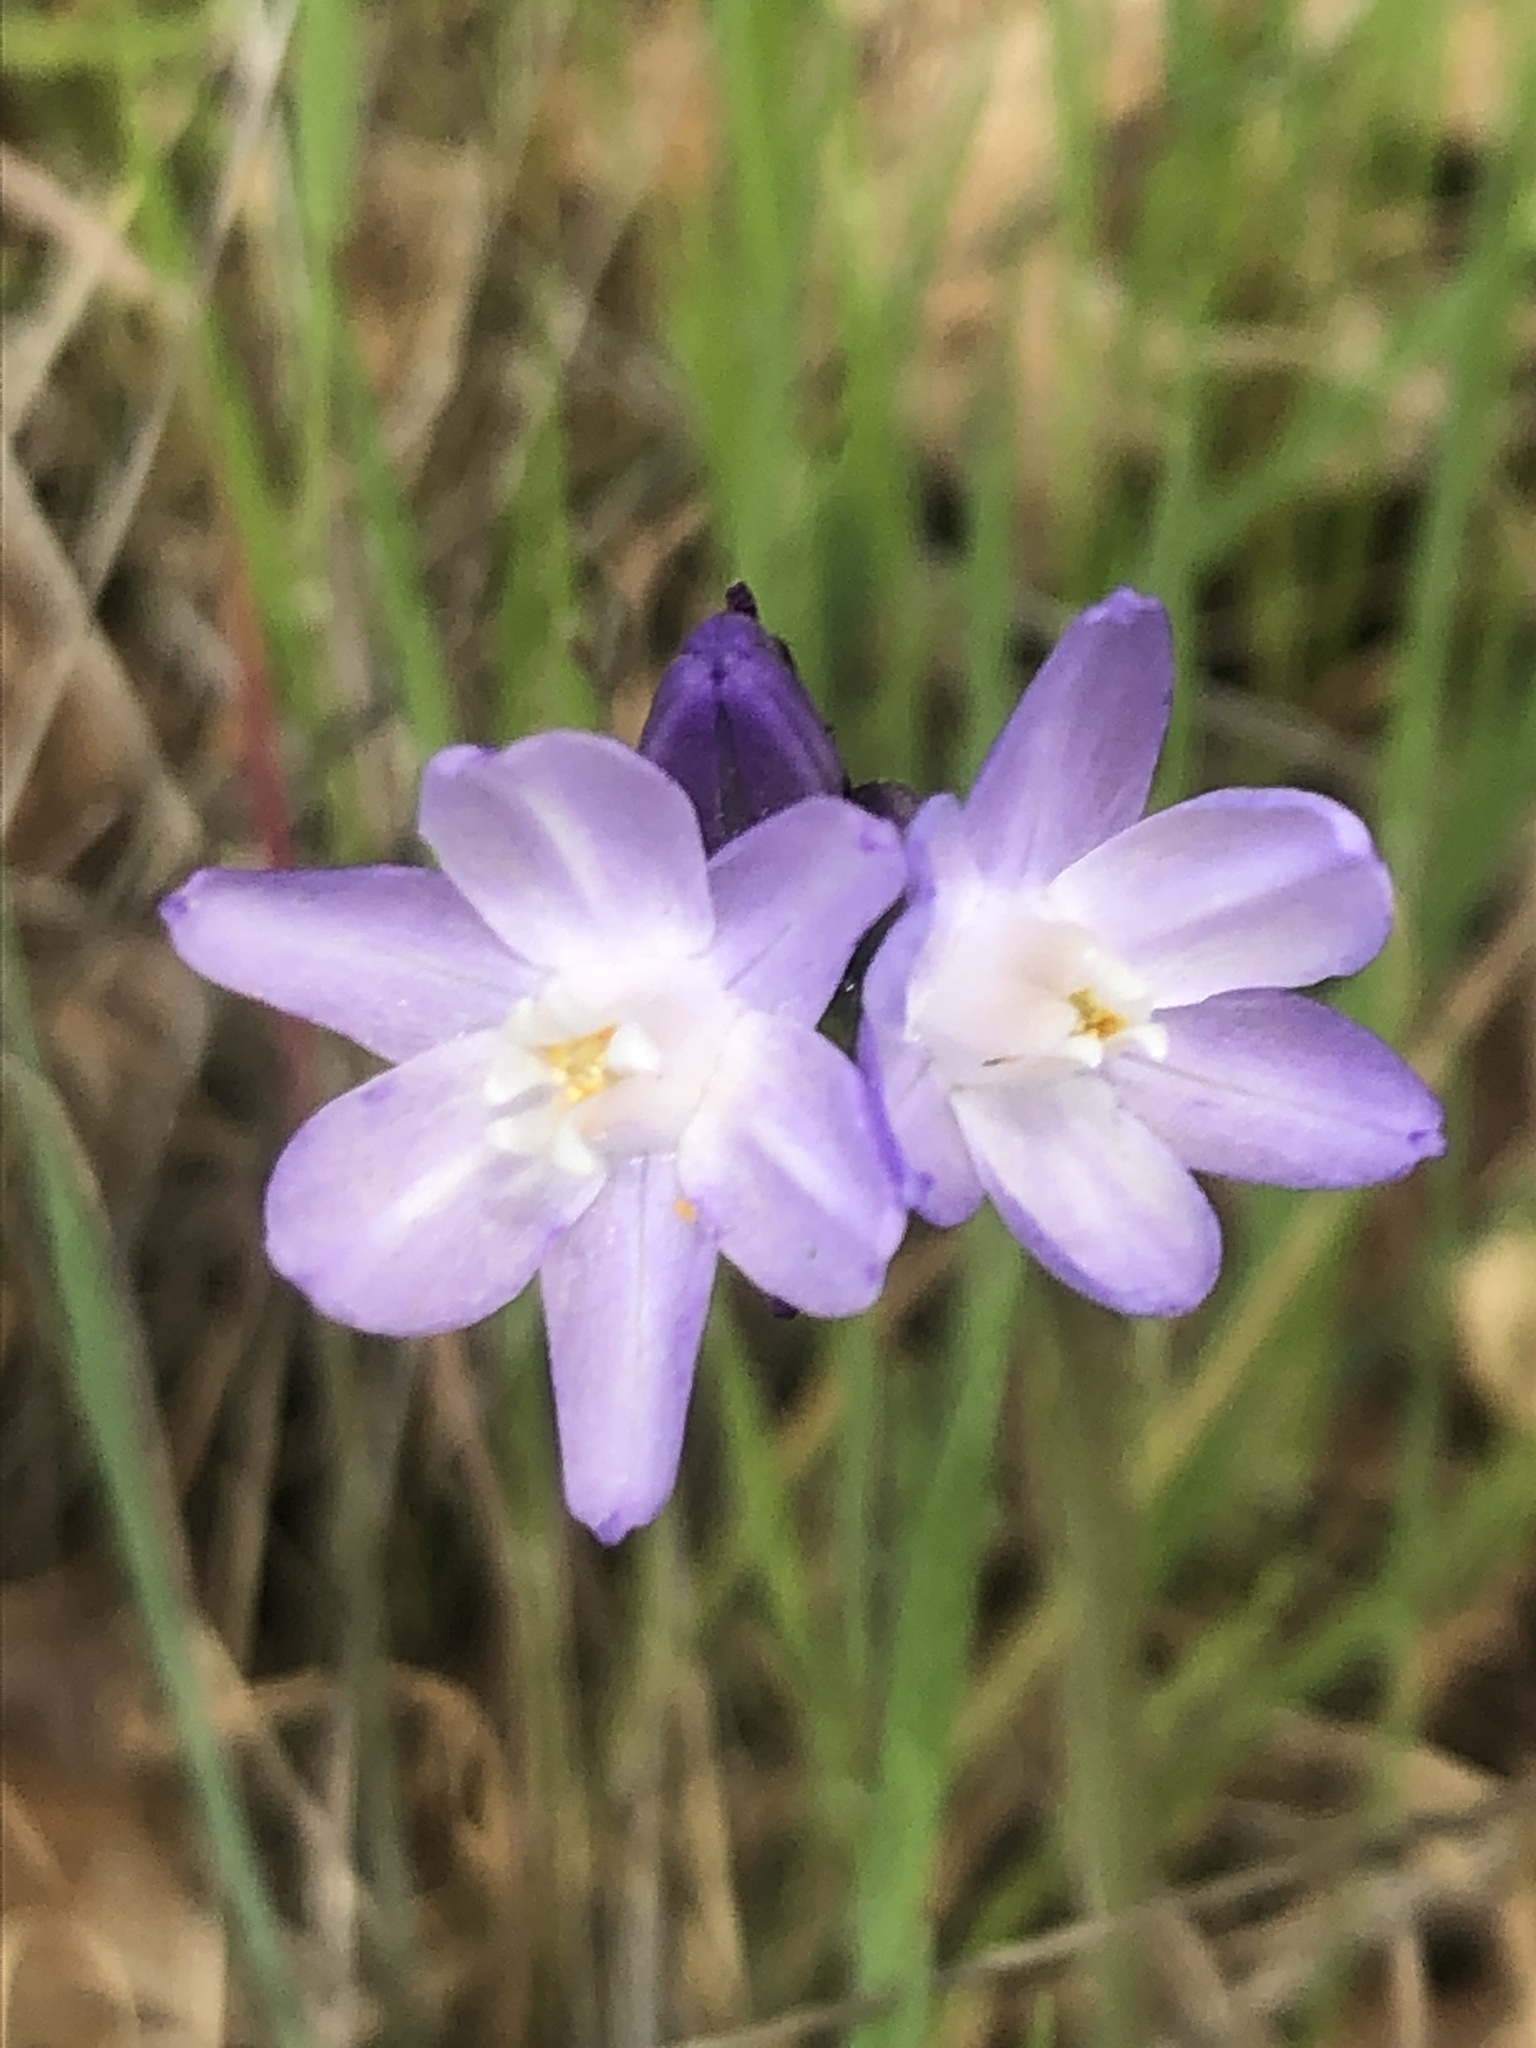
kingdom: Plantae
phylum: Tracheophyta
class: Liliopsida
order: Asparagales
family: Asparagaceae
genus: Dipterostemon
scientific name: Dipterostemon capitatus
